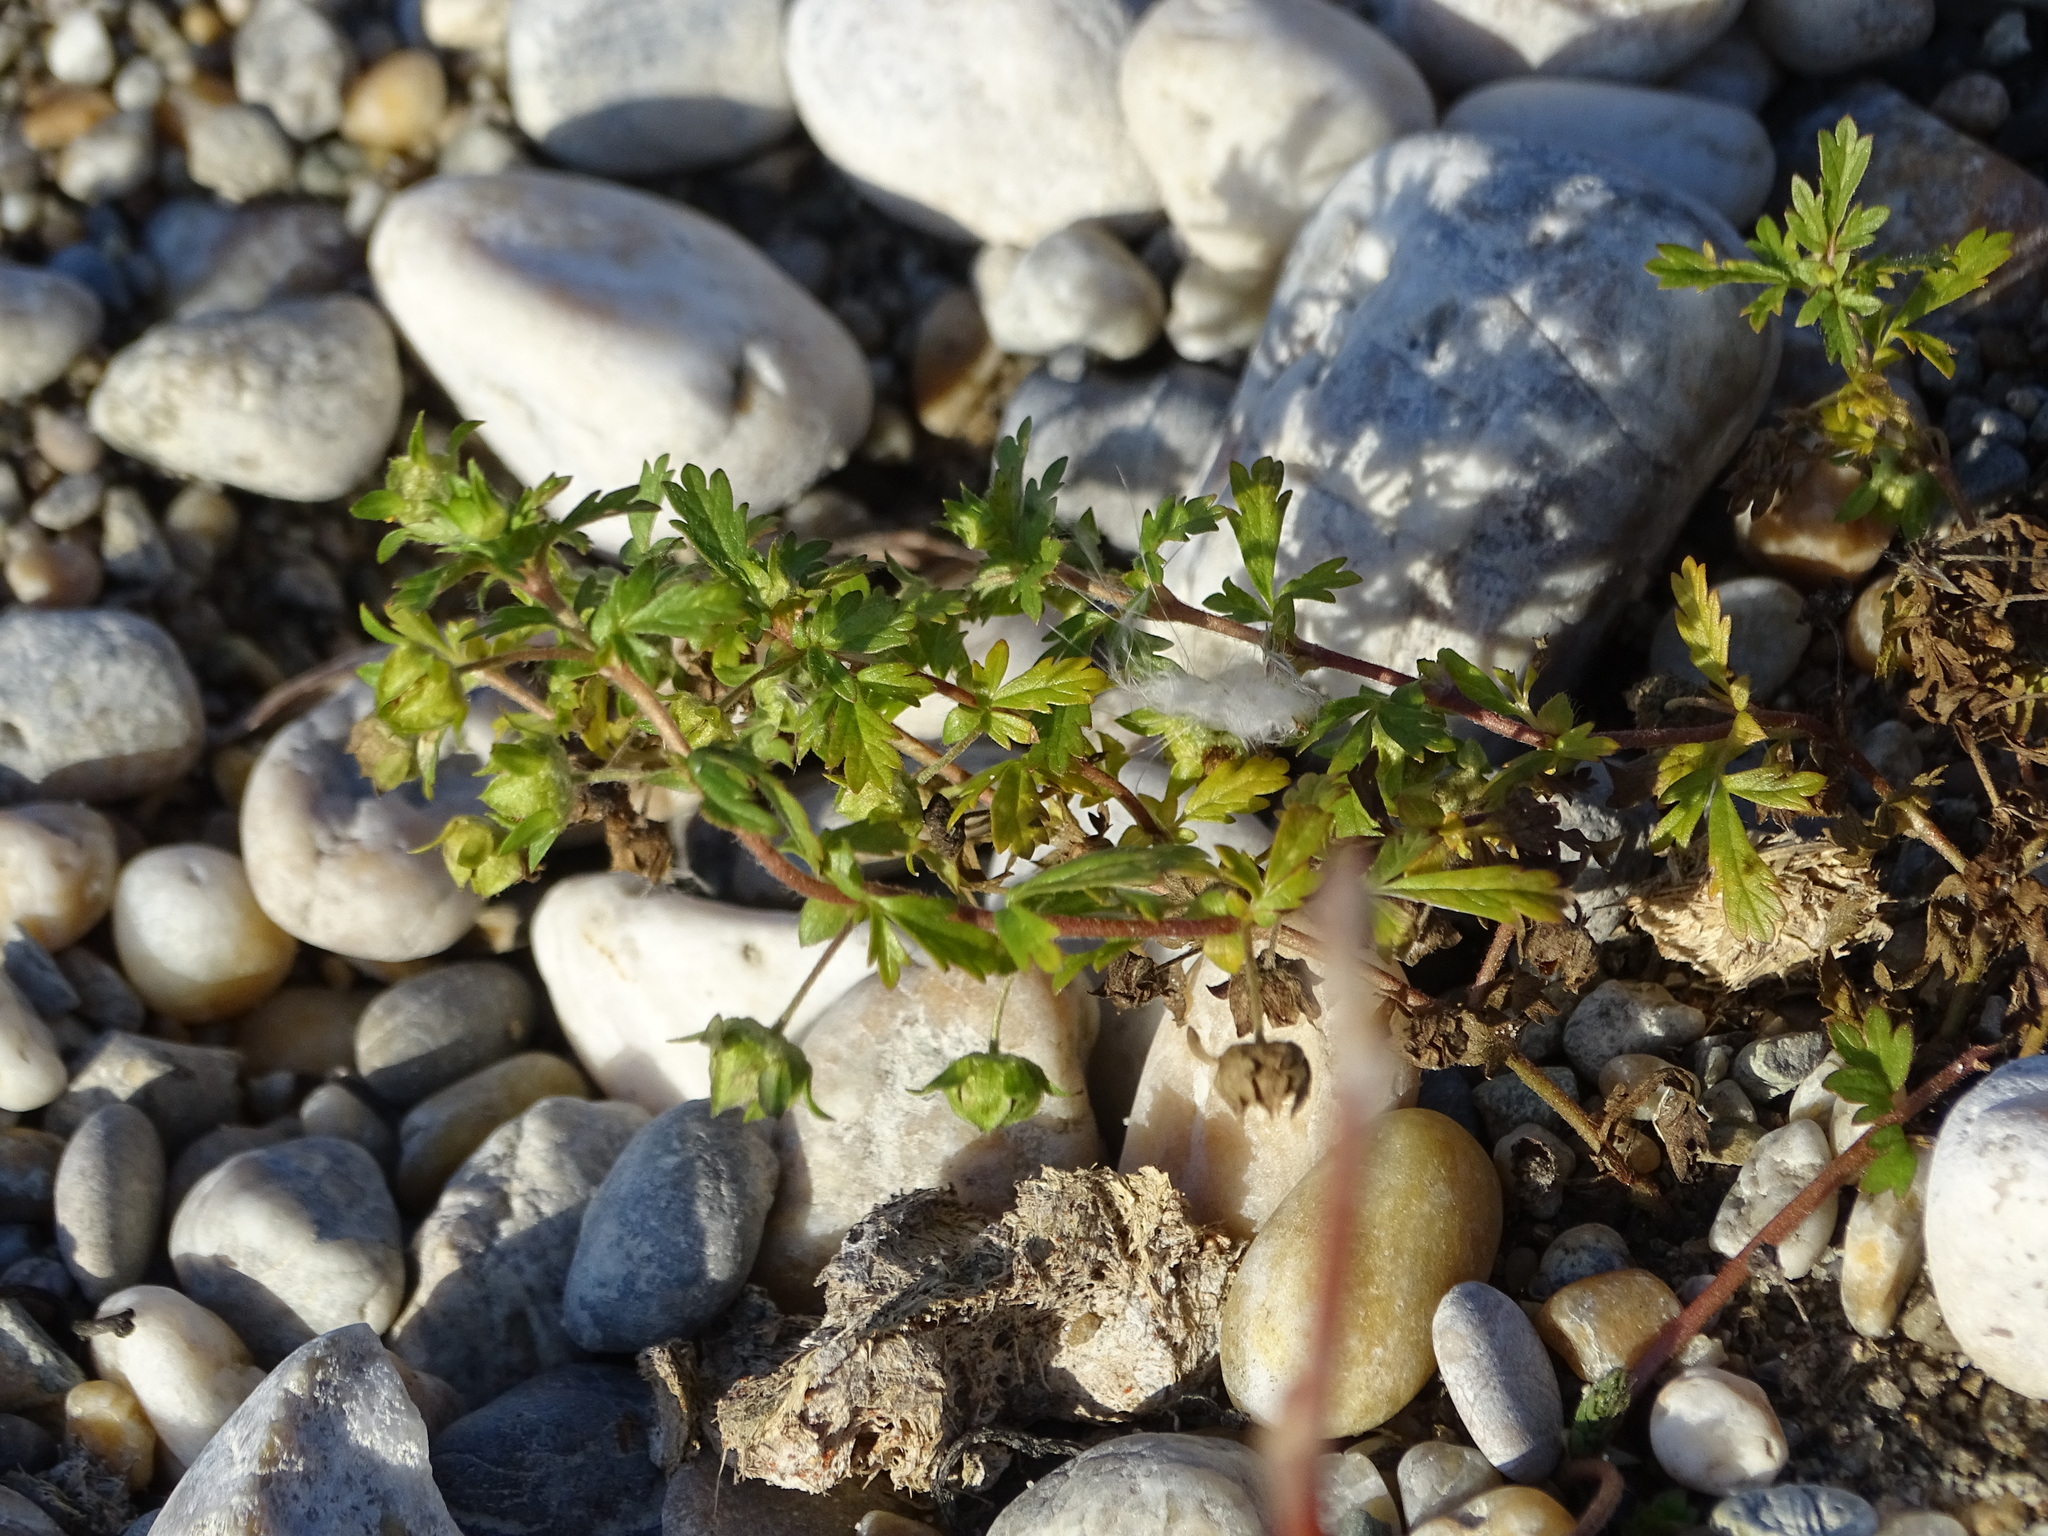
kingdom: Plantae
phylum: Tracheophyta
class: Magnoliopsida
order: Rosales
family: Rosaceae
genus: Potentilla
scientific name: Potentilla supina
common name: Prostrate cinquefoil
